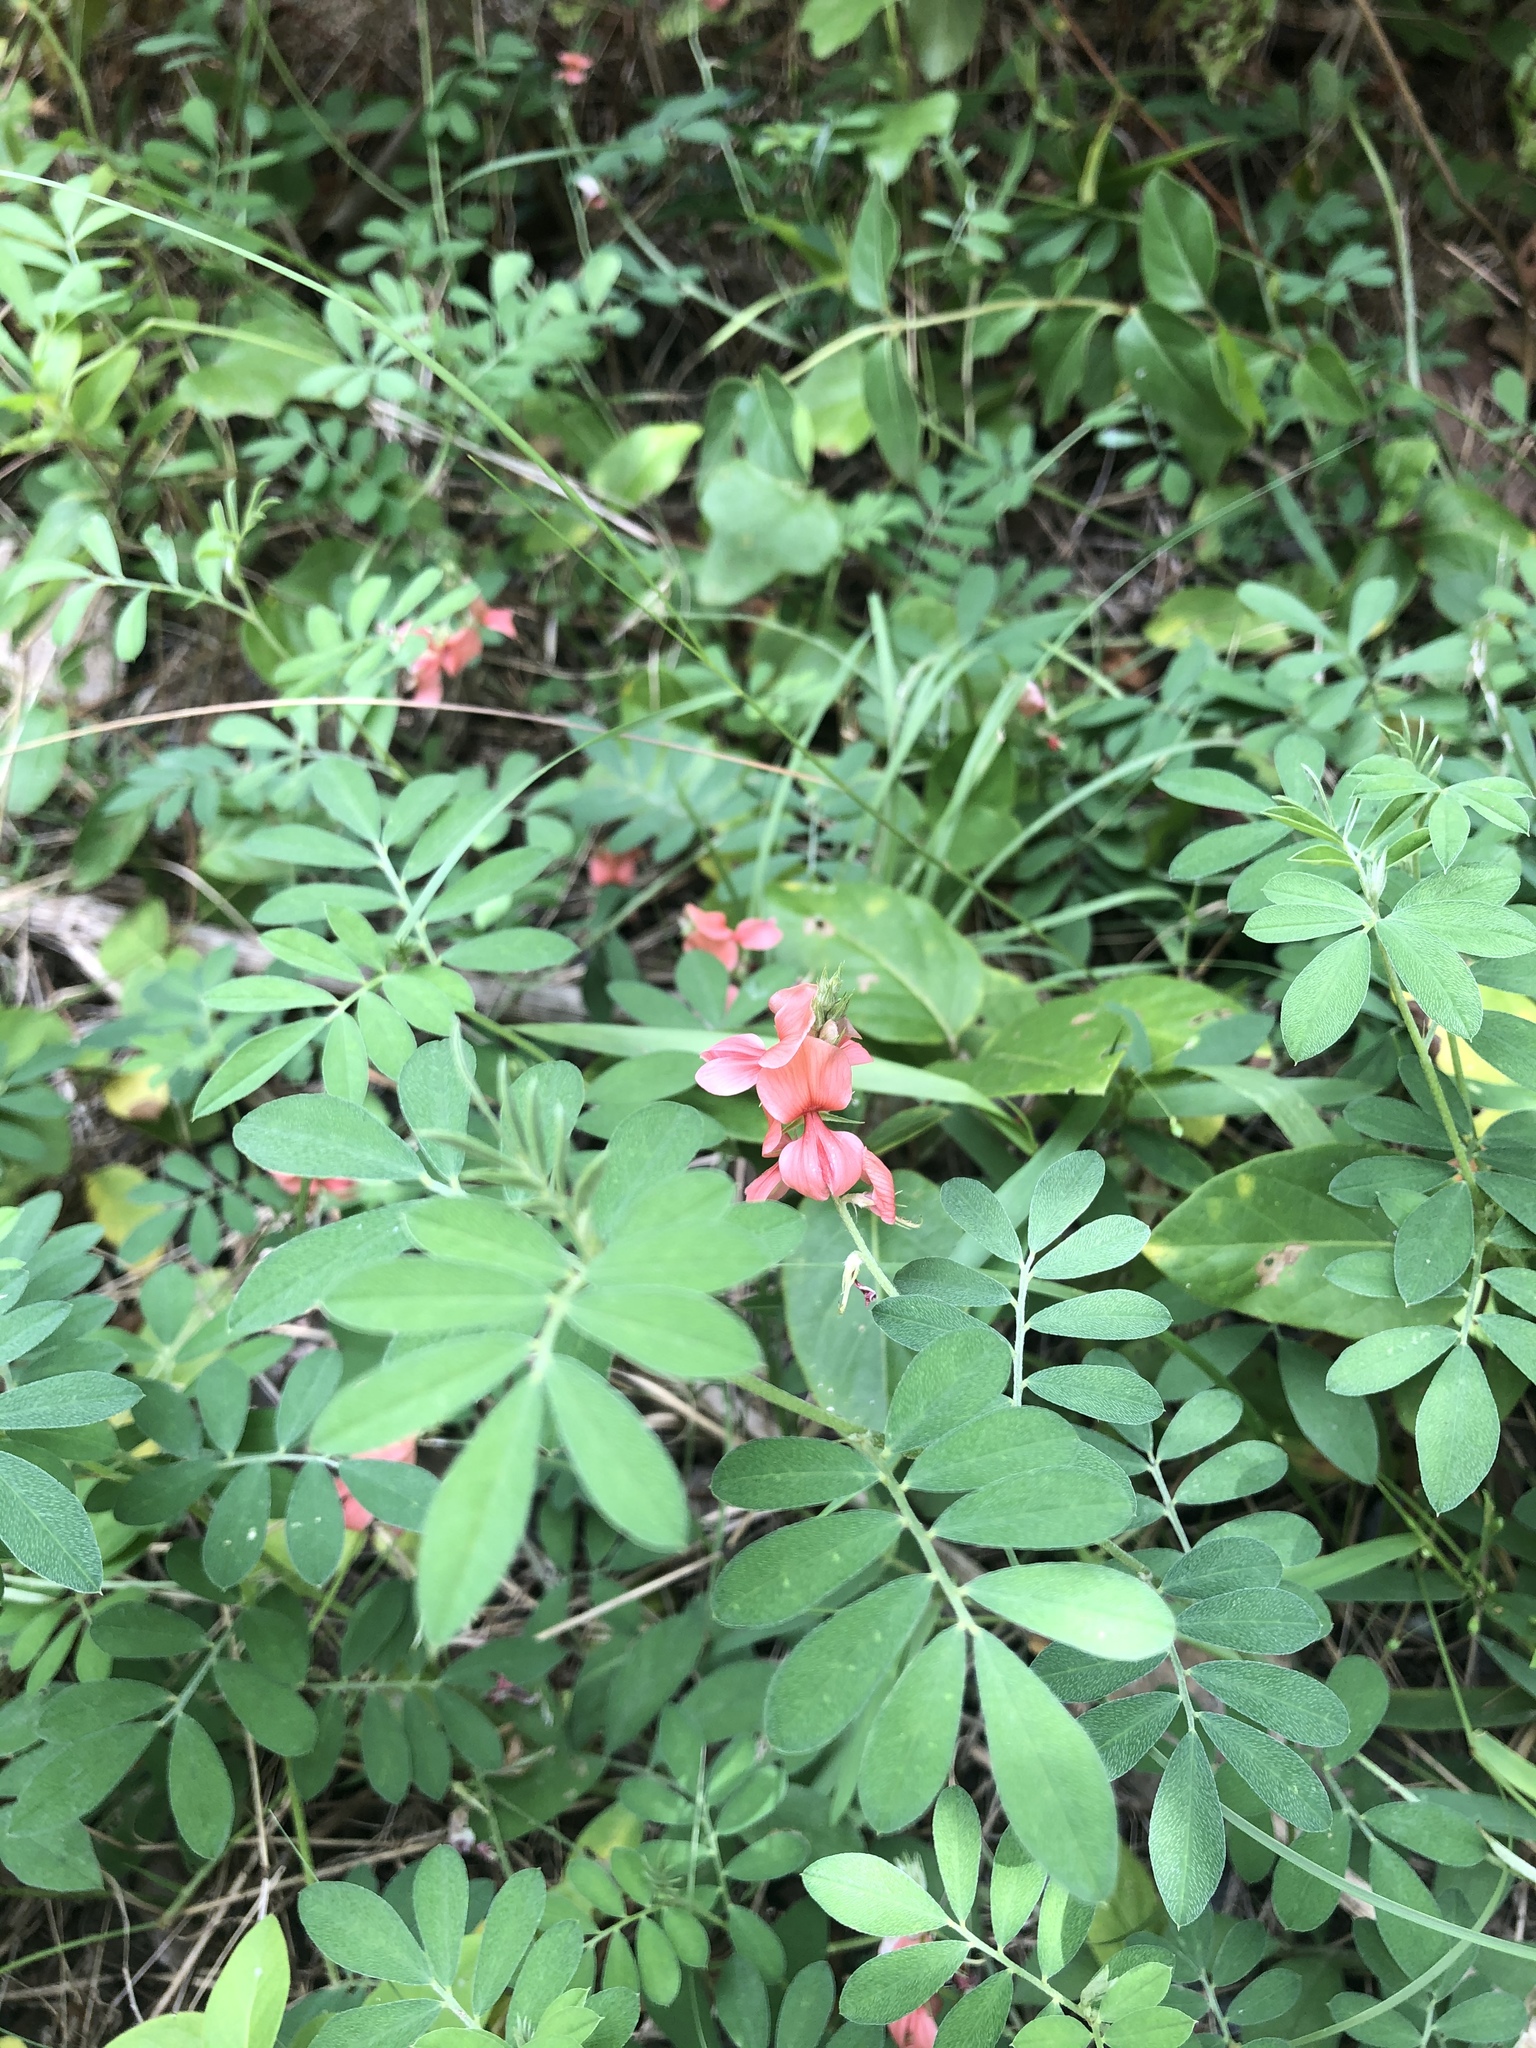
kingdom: Plantae
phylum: Tracheophyta
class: Magnoliopsida
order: Fabales
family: Fabaceae
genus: Indigofera
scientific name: Indigofera miniata
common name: Coast indigo
